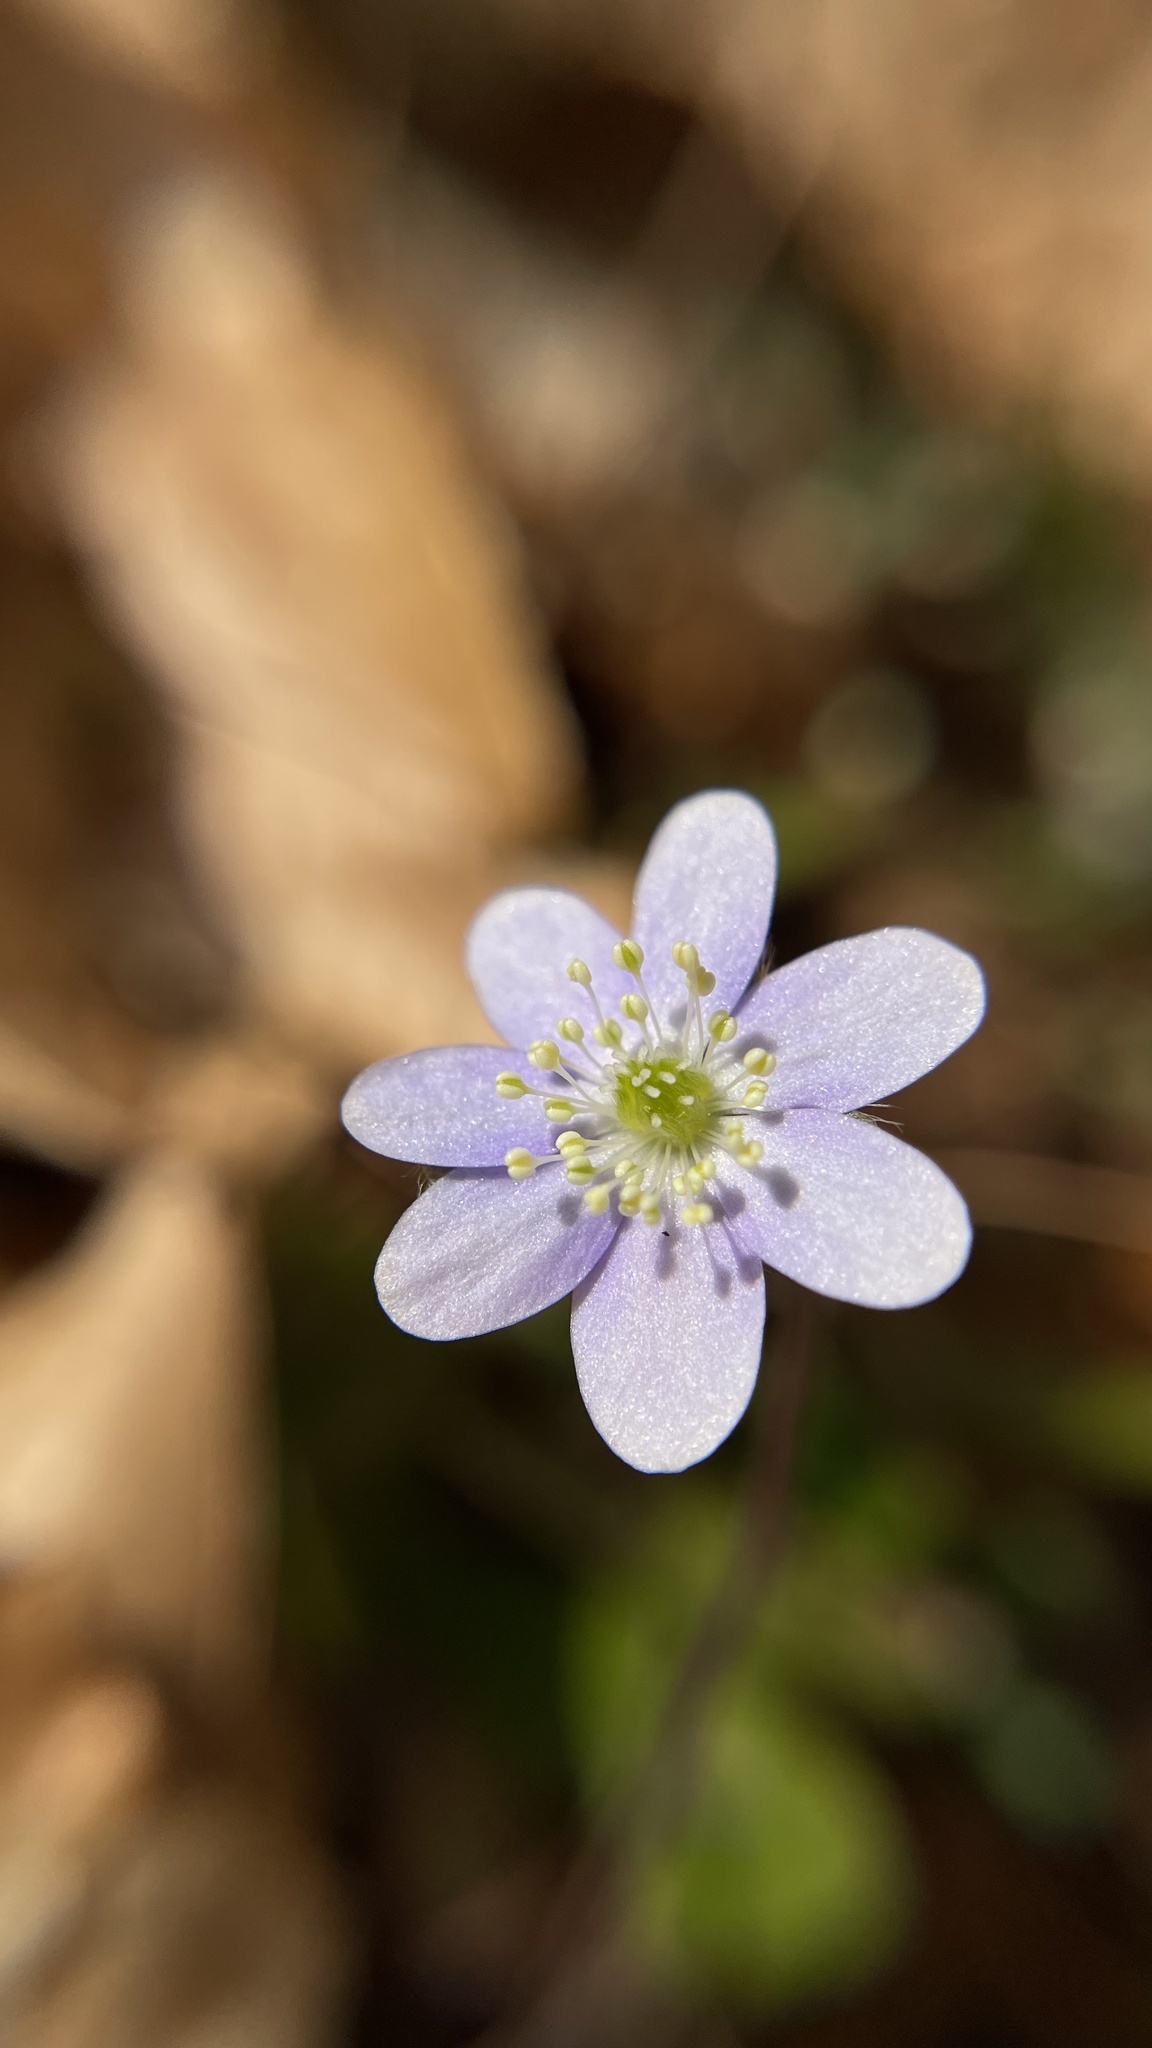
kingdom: Plantae
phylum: Tracheophyta
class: Magnoliopsida
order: Ranunculales
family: Ranunculaceae
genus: Hepatica
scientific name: Hepatica americana
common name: American hepatica
